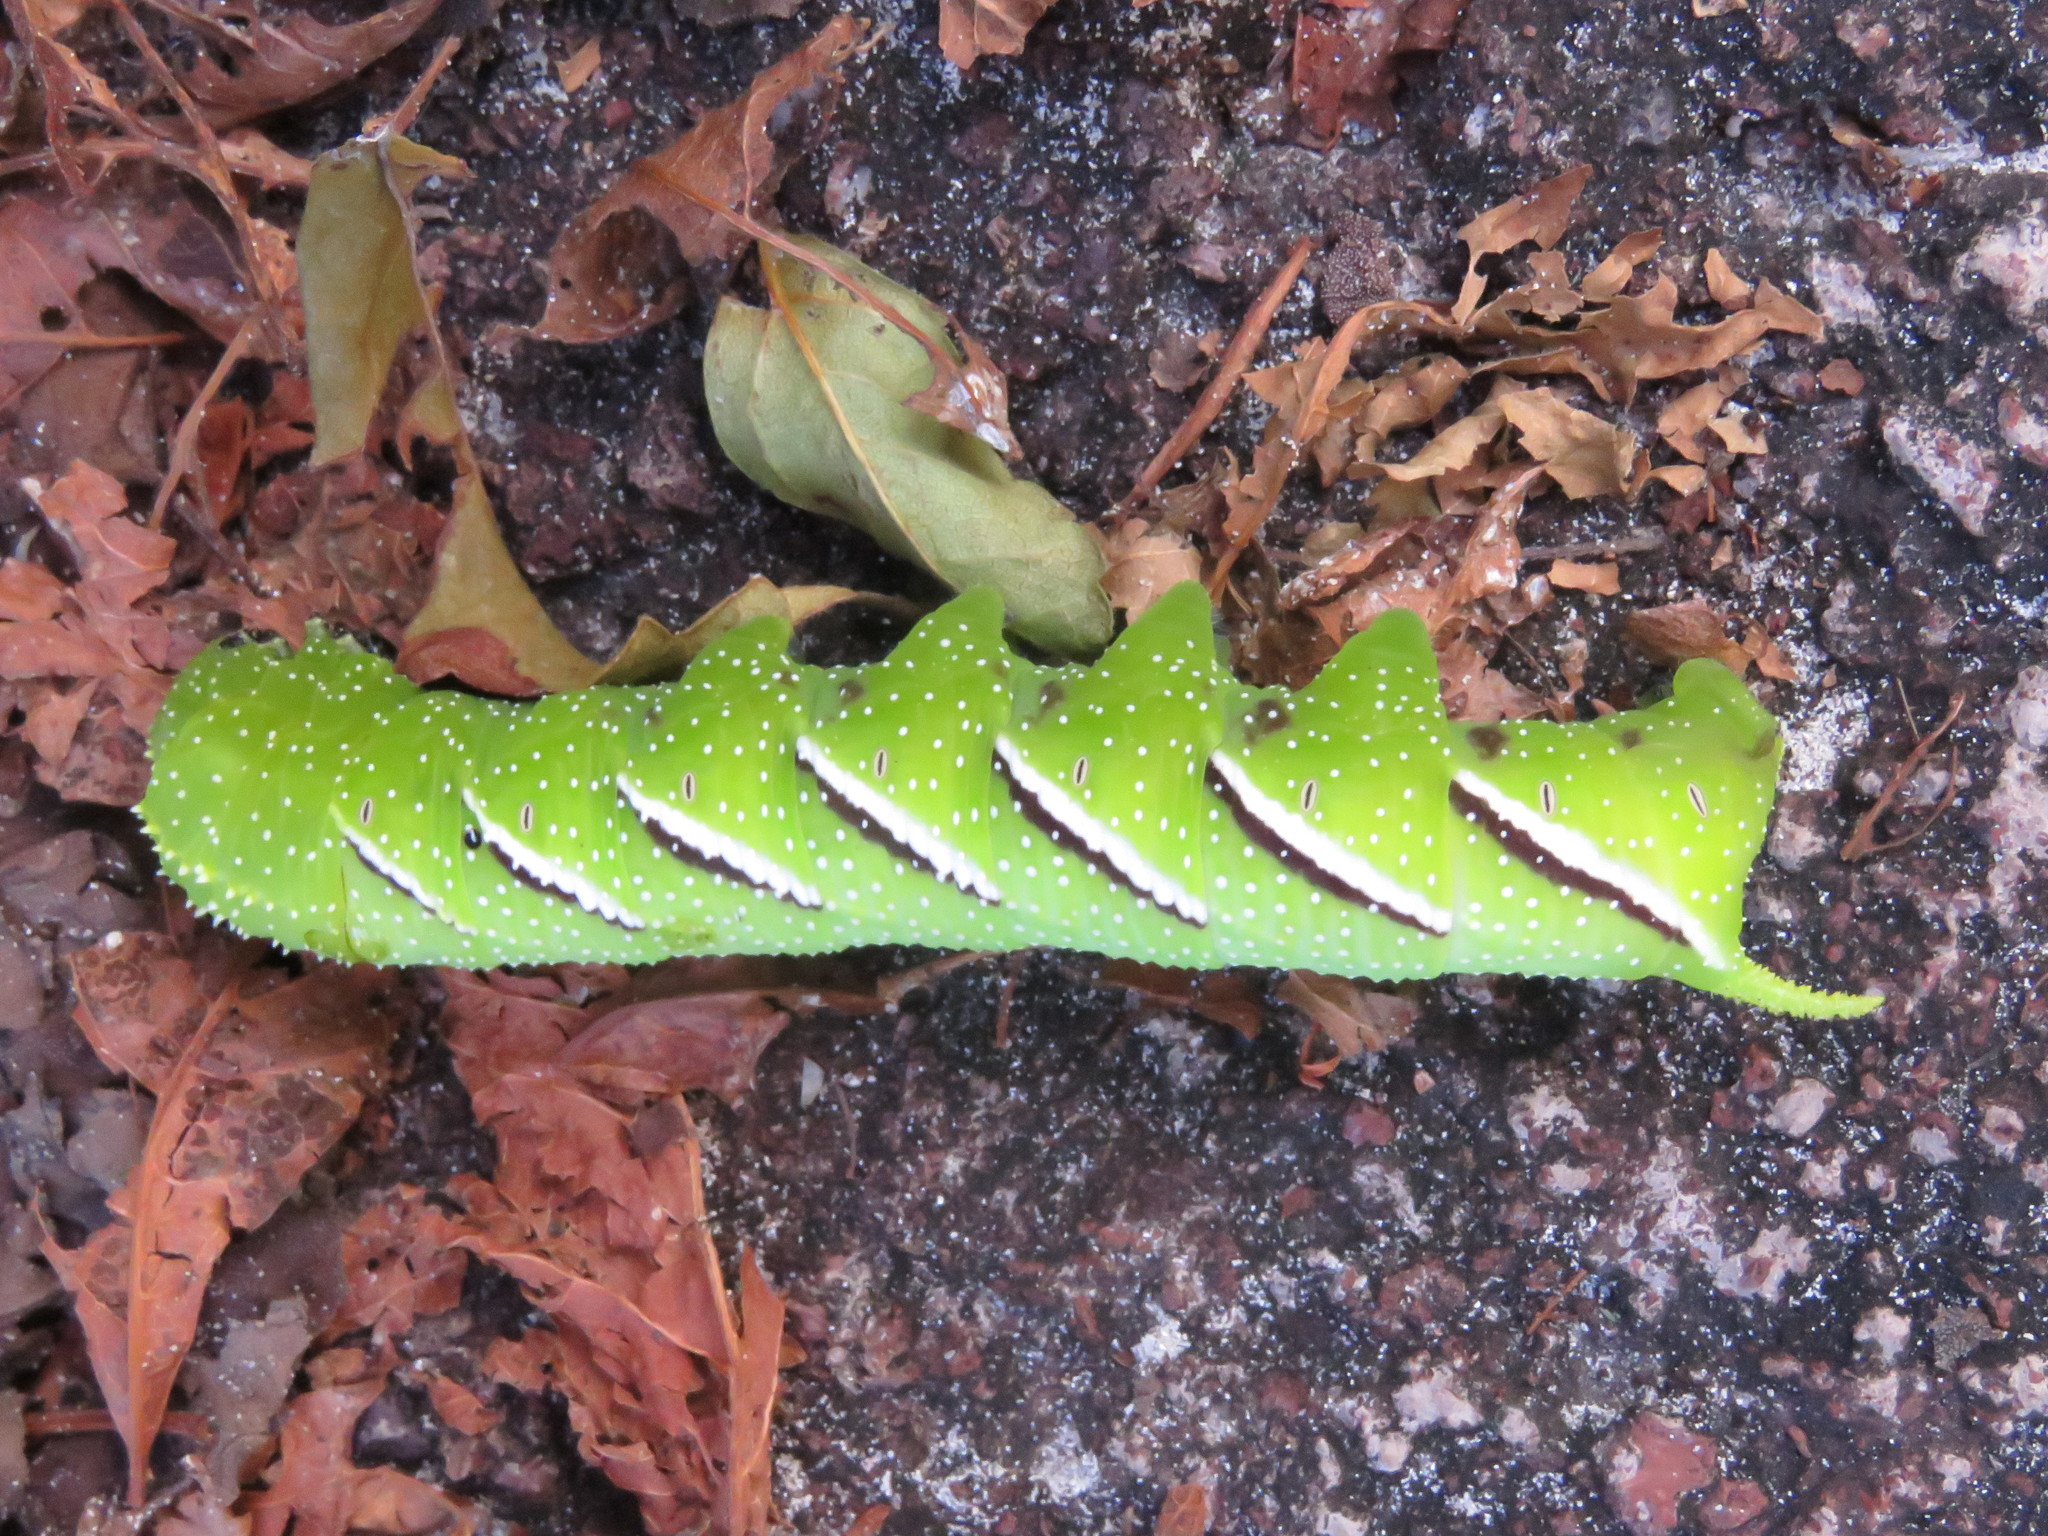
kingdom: Animalia
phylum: Arthropoda
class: Insecta
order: Lepidoptera
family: Sphingidae
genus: Manduca
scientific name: Manduca rustica
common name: Rustic sphinx
